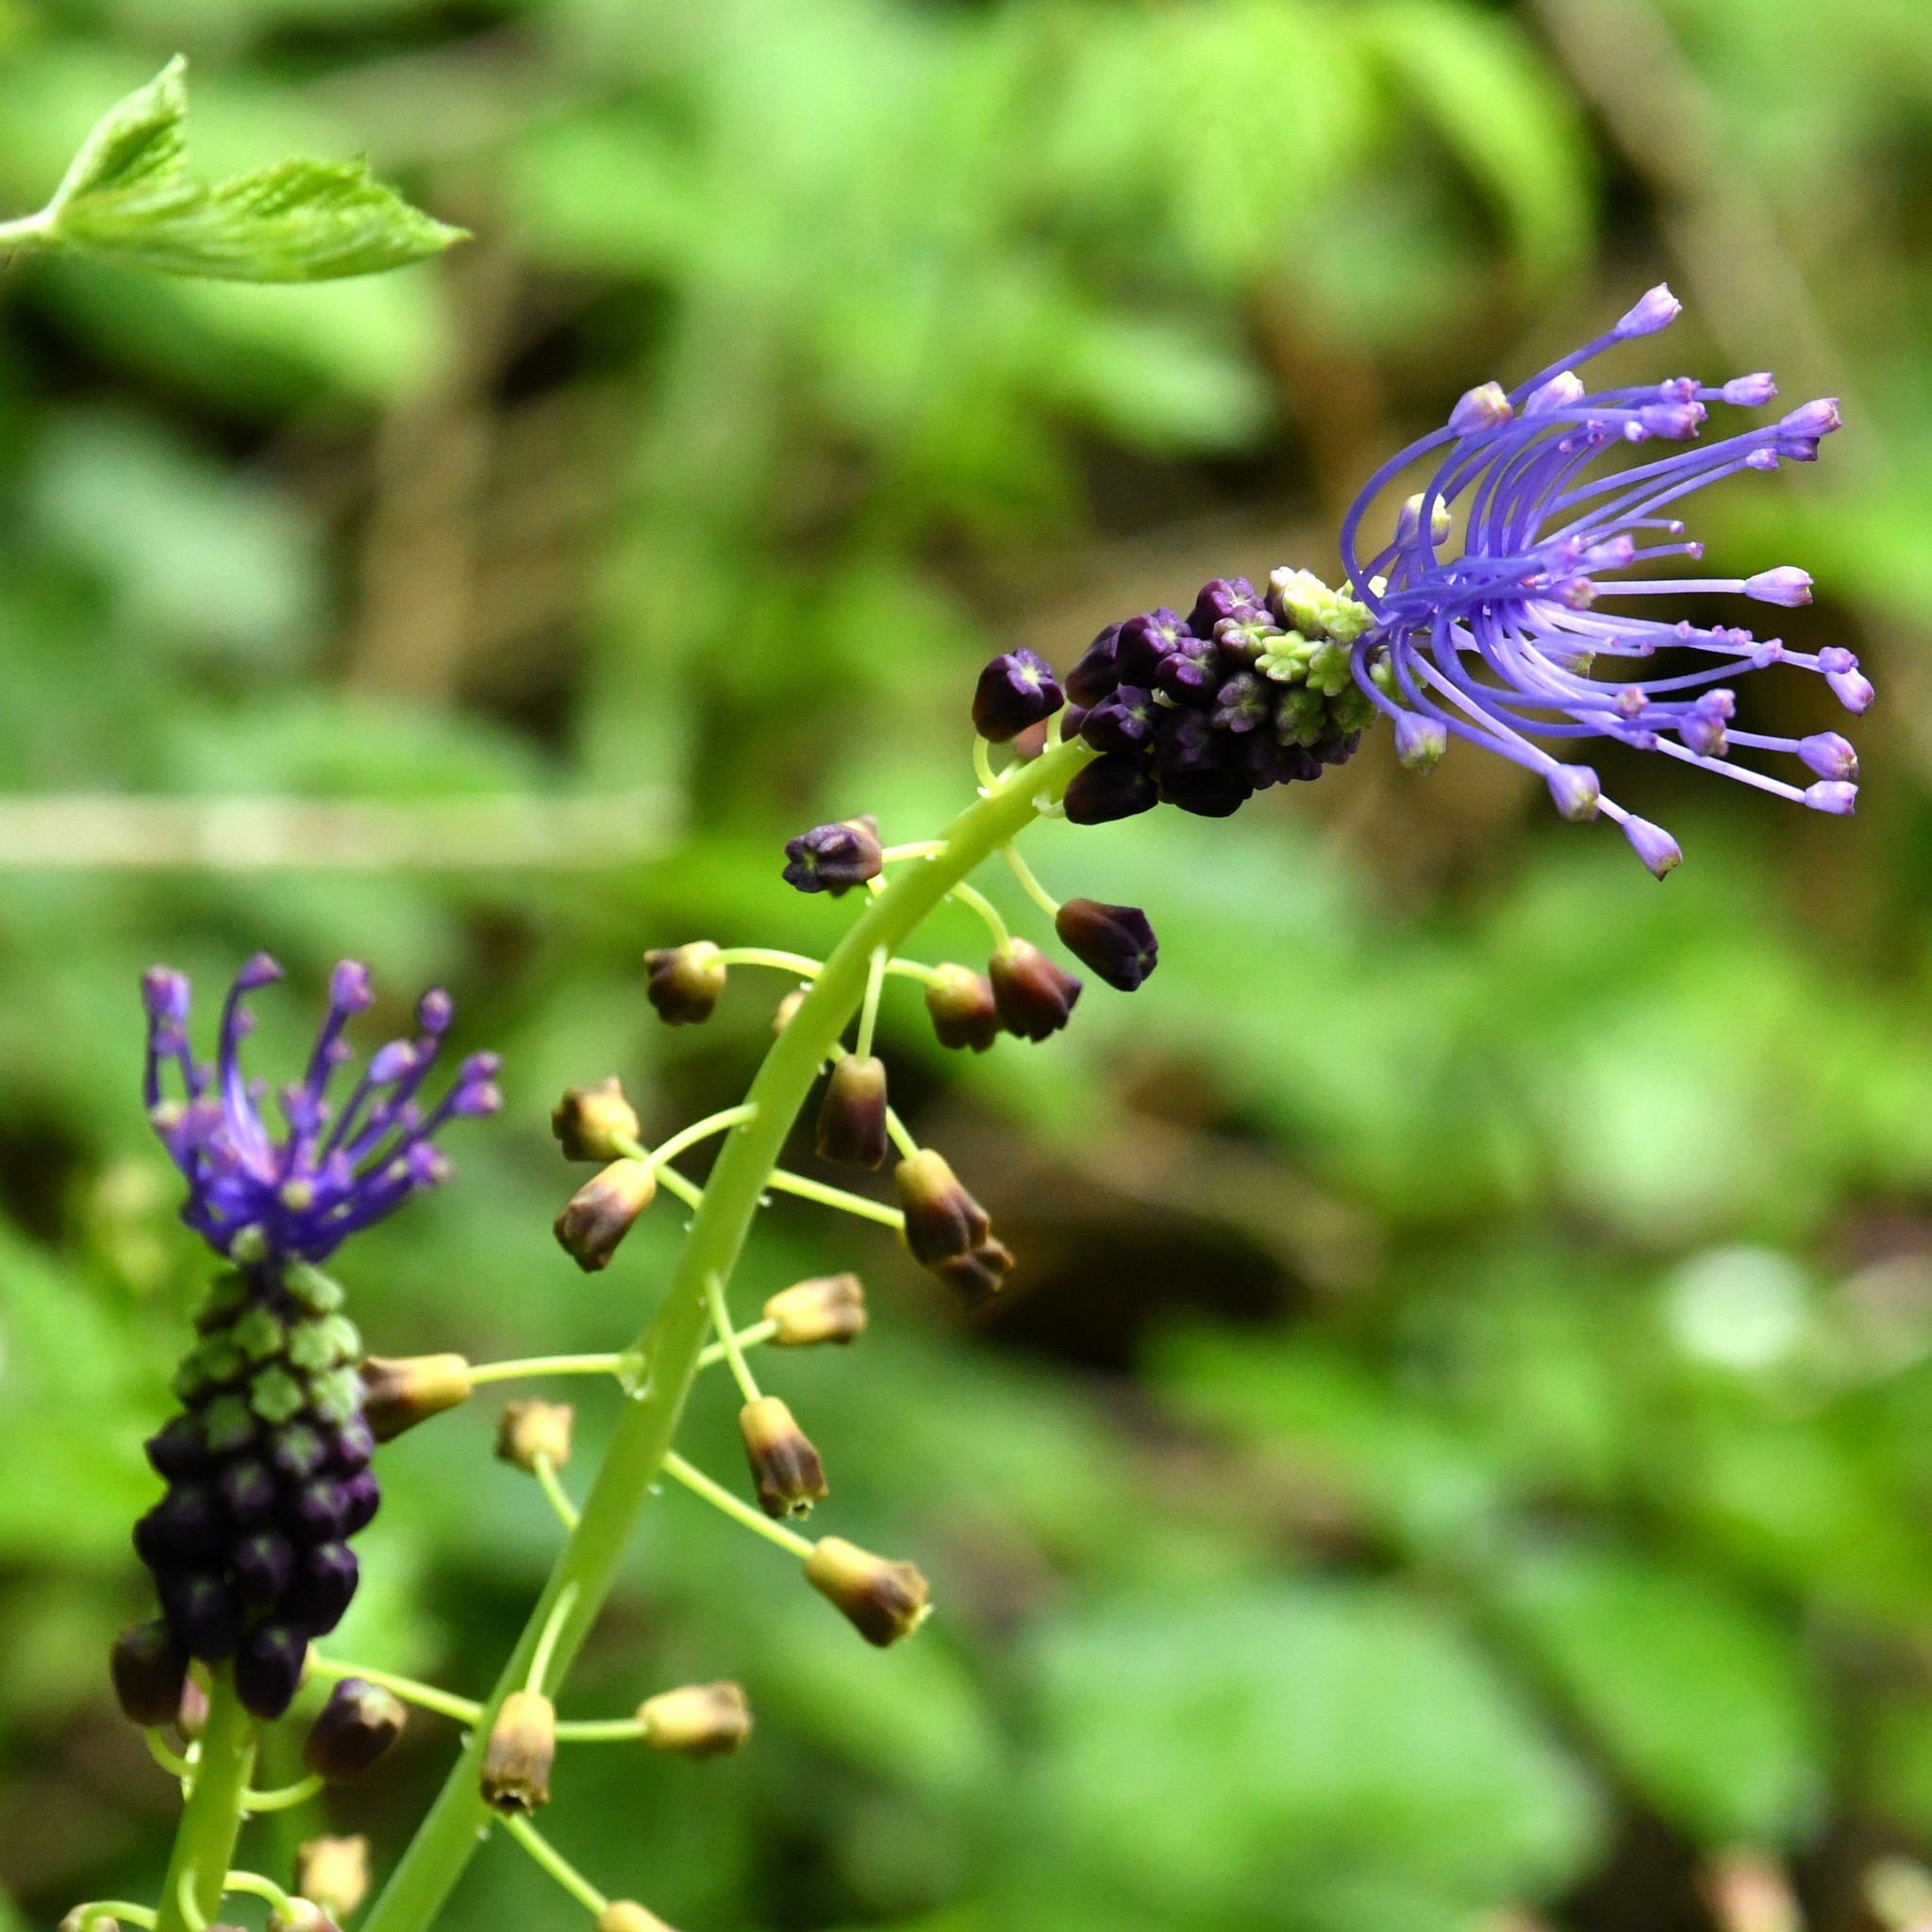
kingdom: Plantae
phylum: Tracheophyta
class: Liliopsida
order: Asparagales
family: Asparagaceae
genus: Muscari
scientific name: Muscari comosum
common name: Tassel hyacinth
